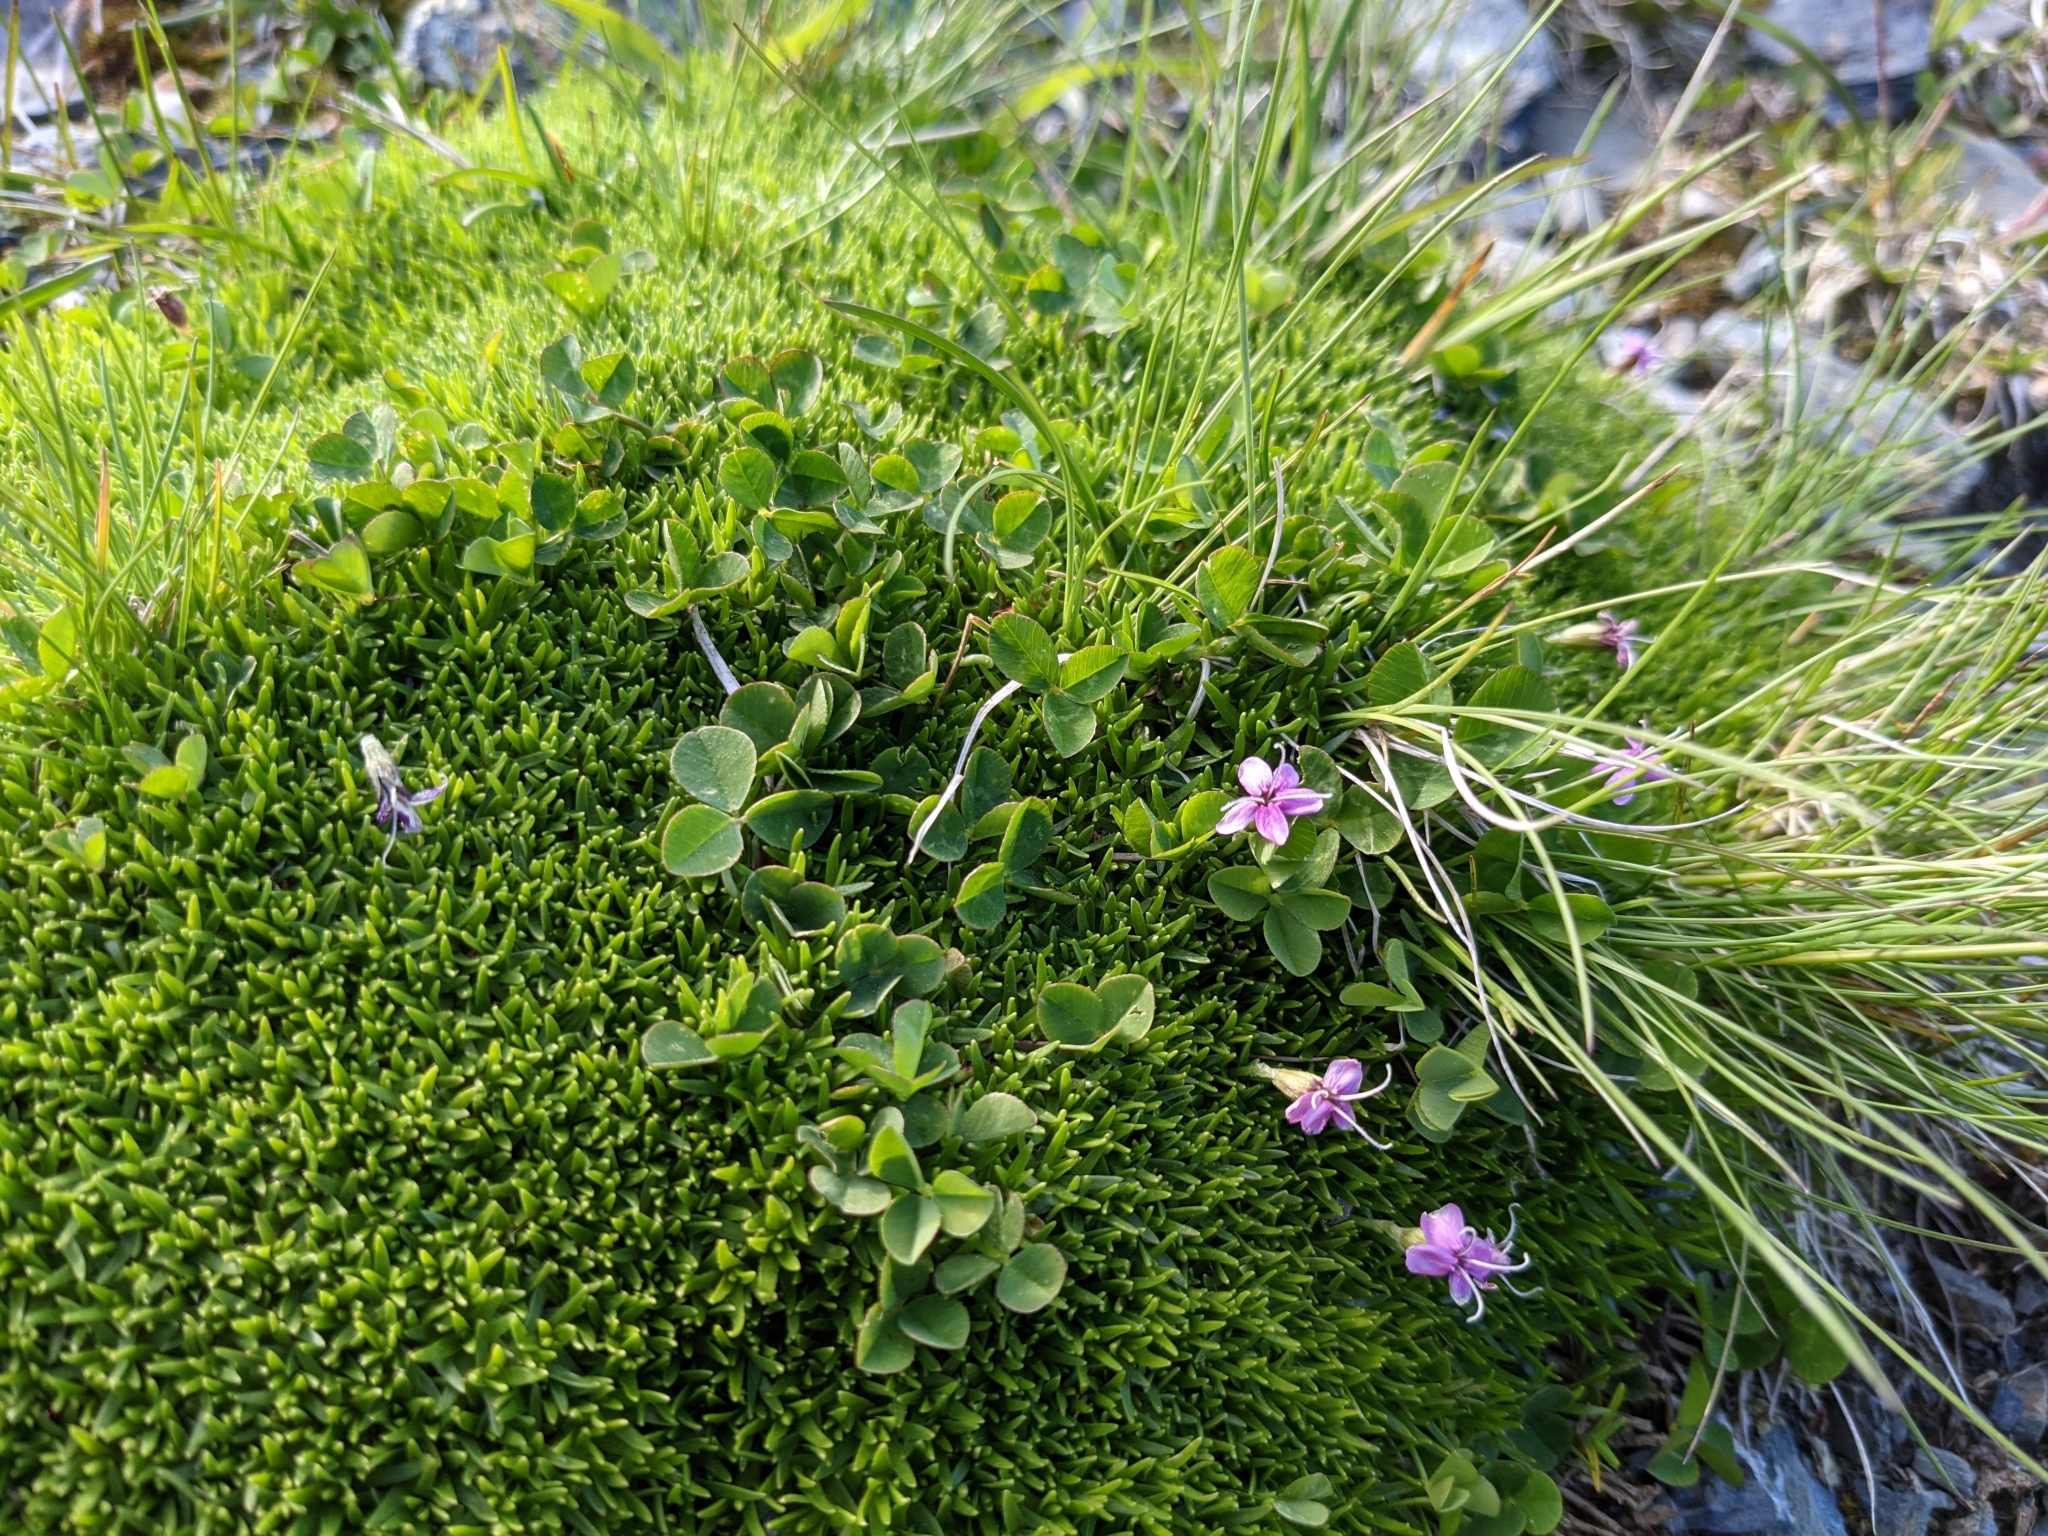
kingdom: Plantae
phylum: Tracheophyta
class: Magnoliopsida
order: Caryophyllales
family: Caryophyllaceae
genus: Silene
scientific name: Silene acaulis
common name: Moss campion
